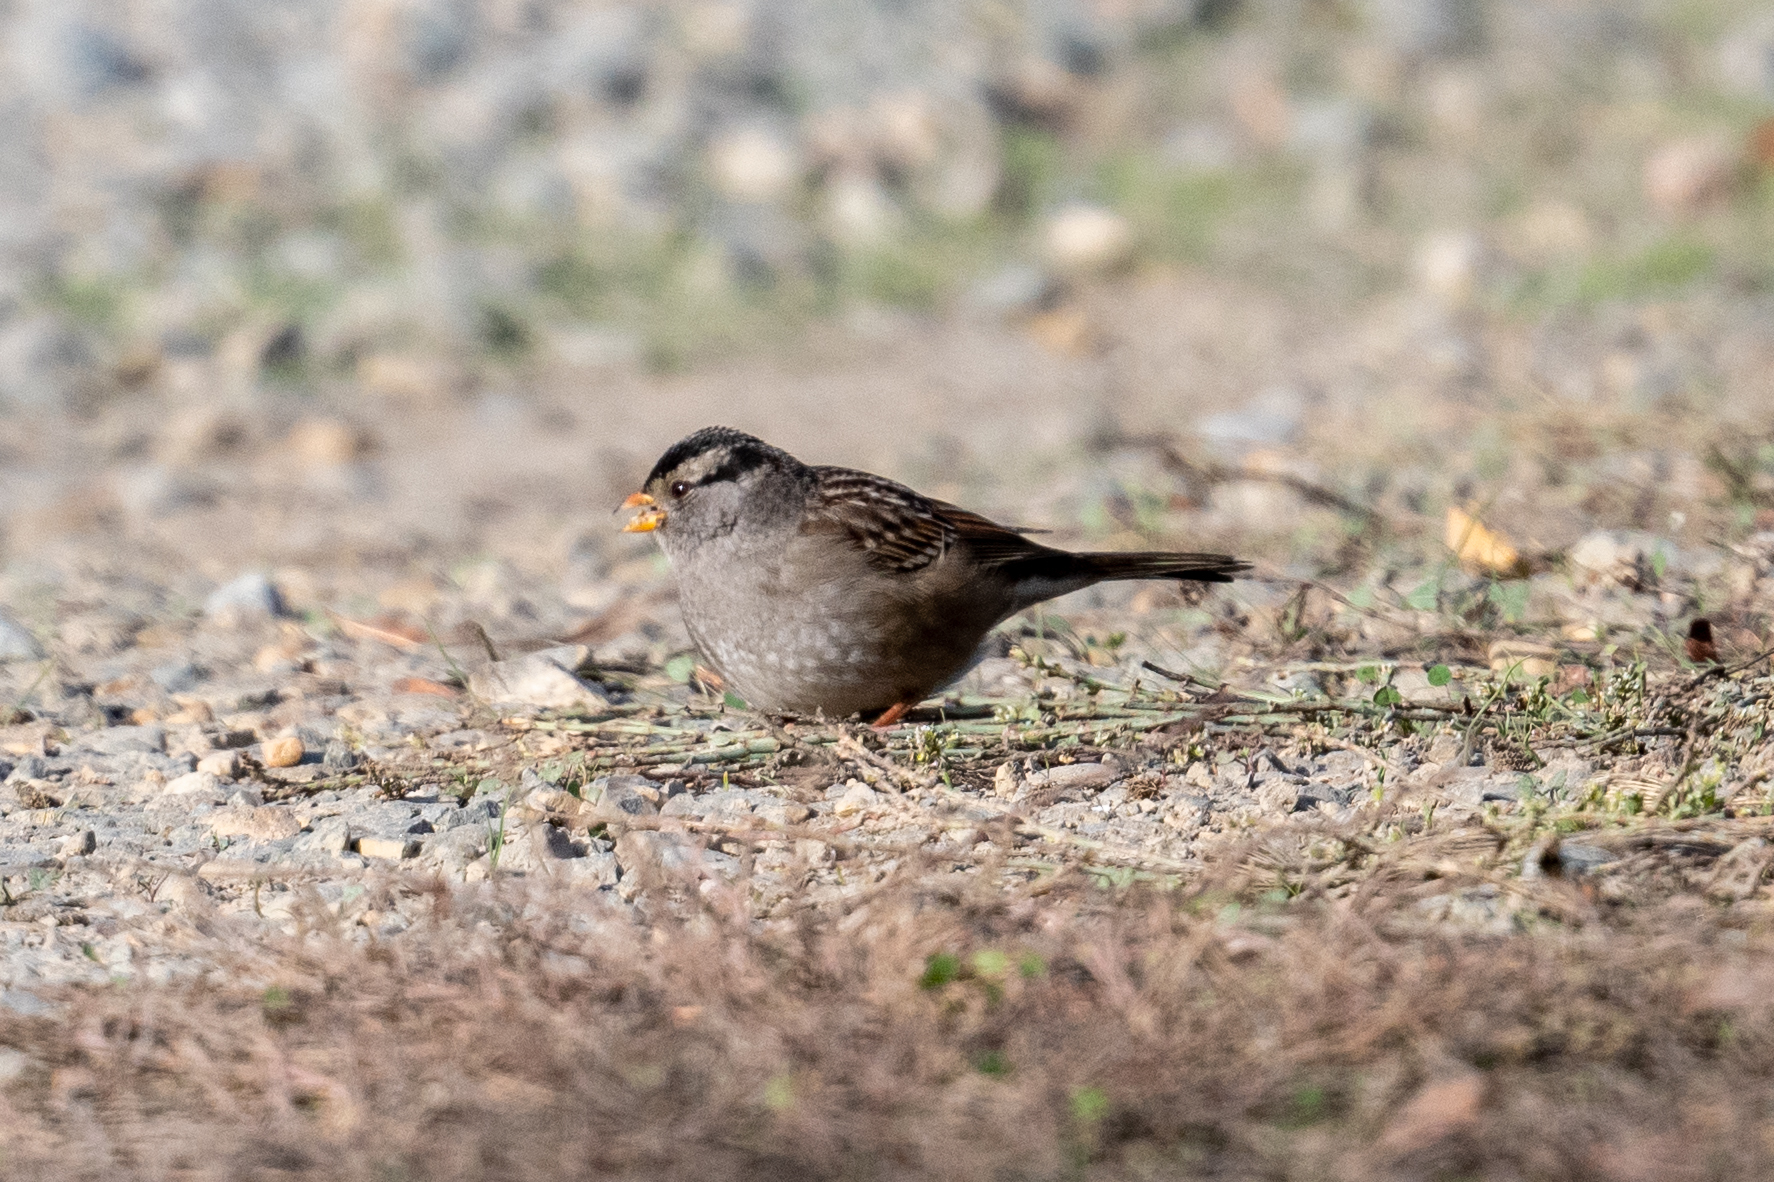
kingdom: Animalia
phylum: Chordata
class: Aves
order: Passeriformes
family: Passerellidae
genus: Zonotrichia
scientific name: Zonotrichia leucophrys
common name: White-crowned sparrow
